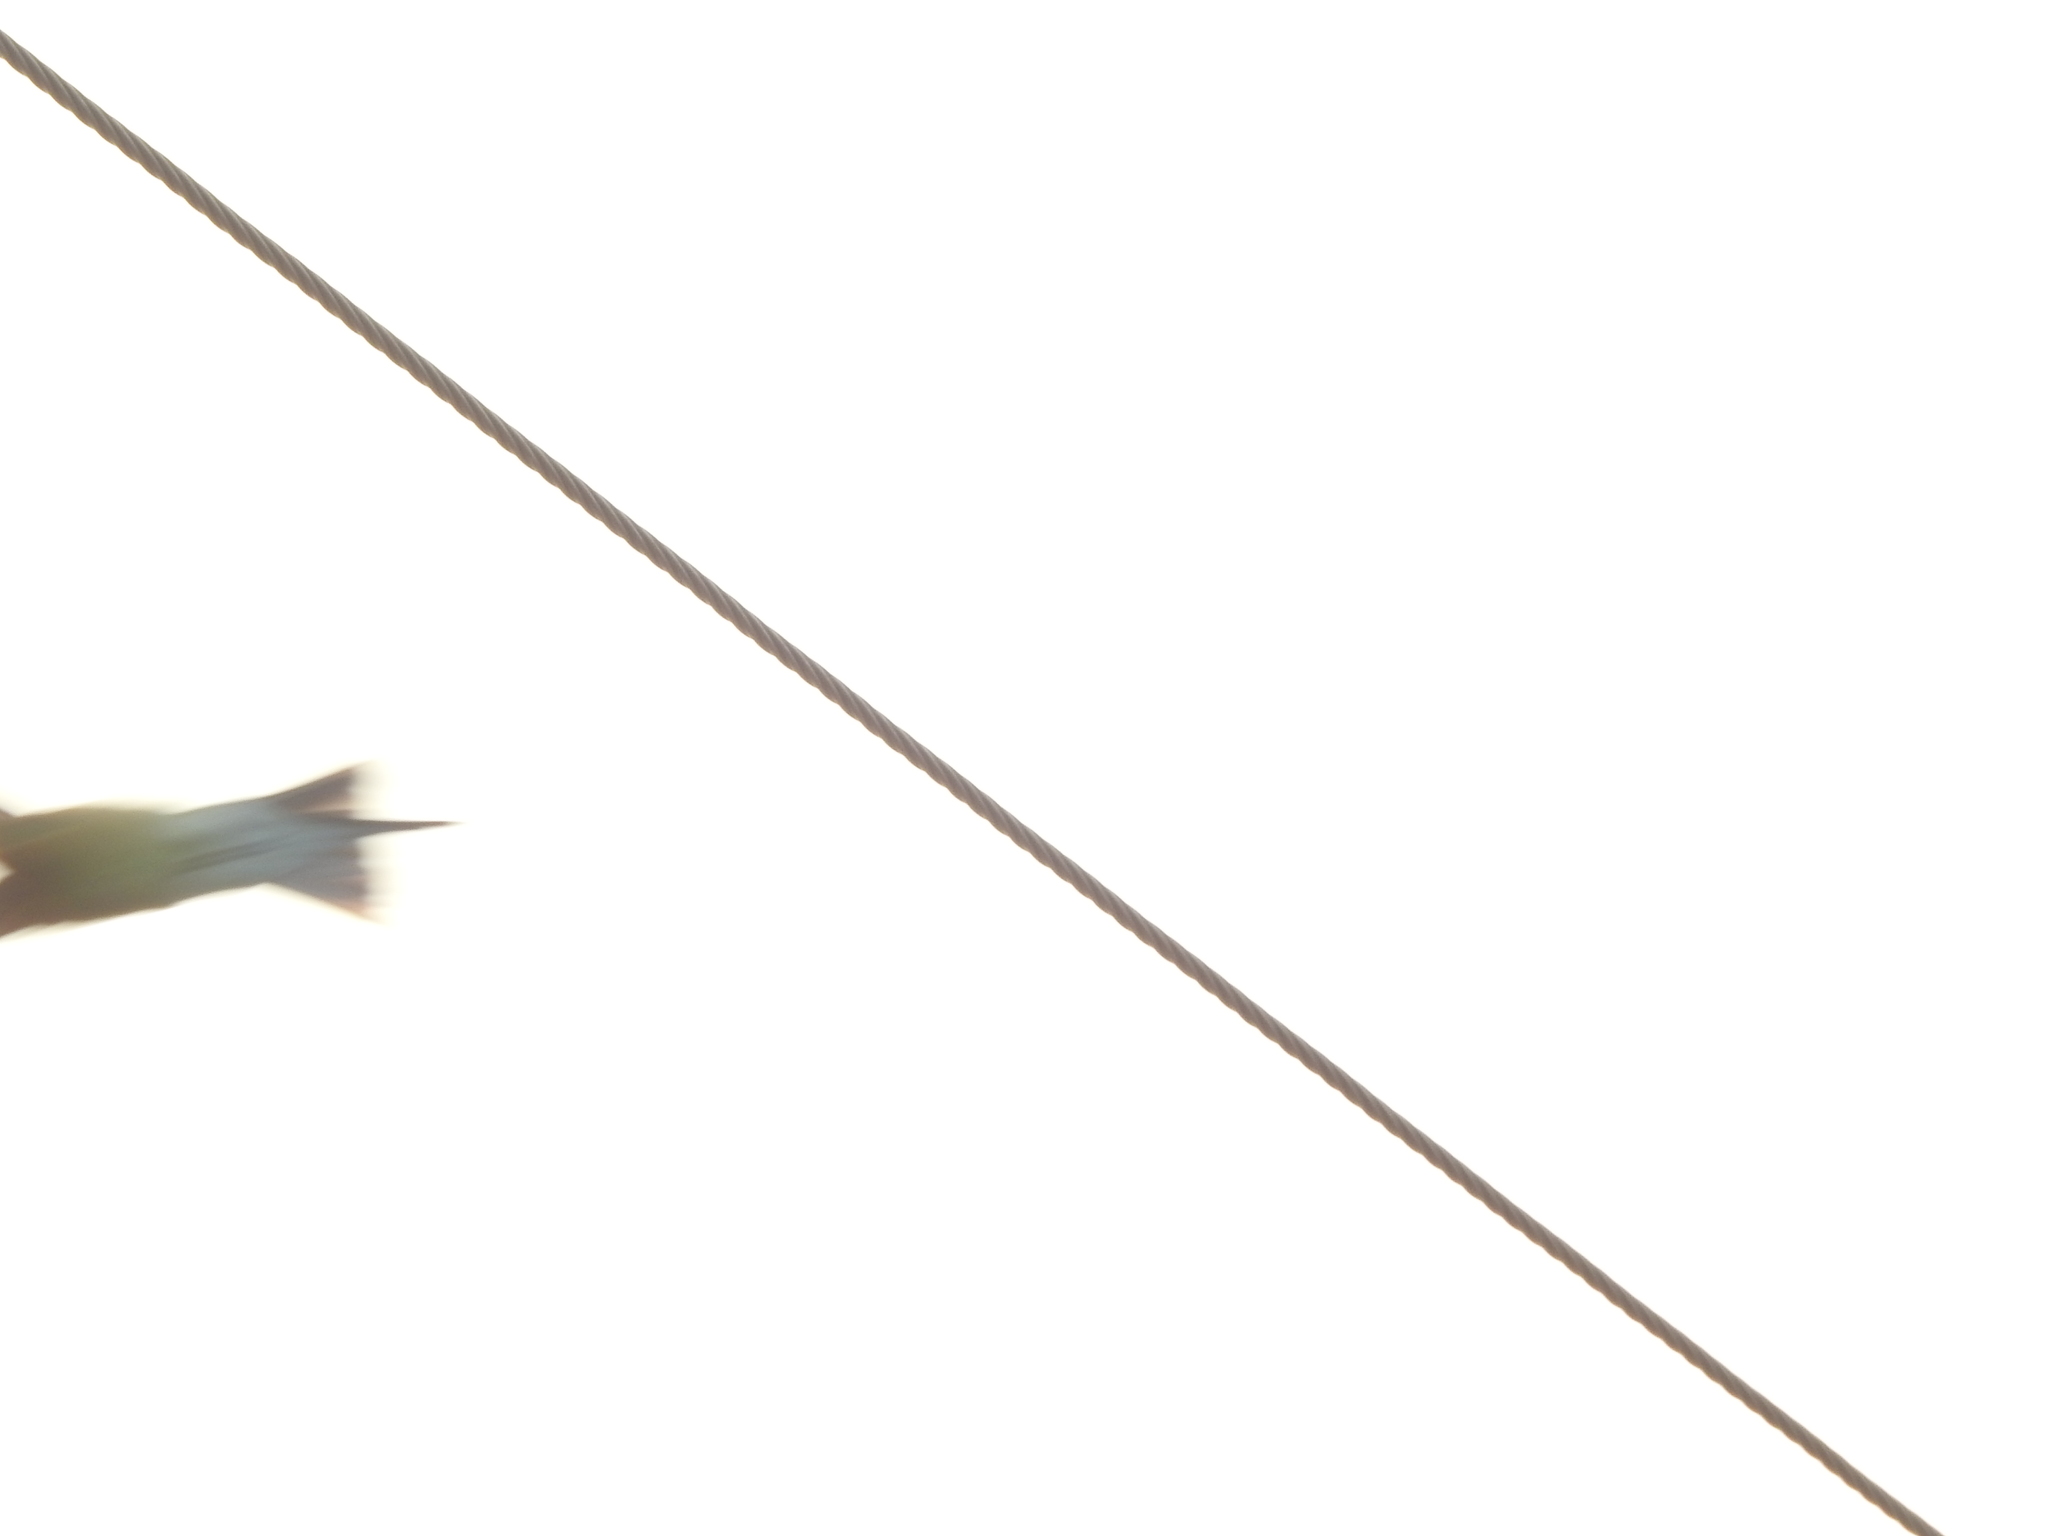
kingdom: Animalia
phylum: Chordata
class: Aves
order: Coraciiformes
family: Meropidae
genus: Merops
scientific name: Merops philippinus
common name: Blue-tailed bee-eater
